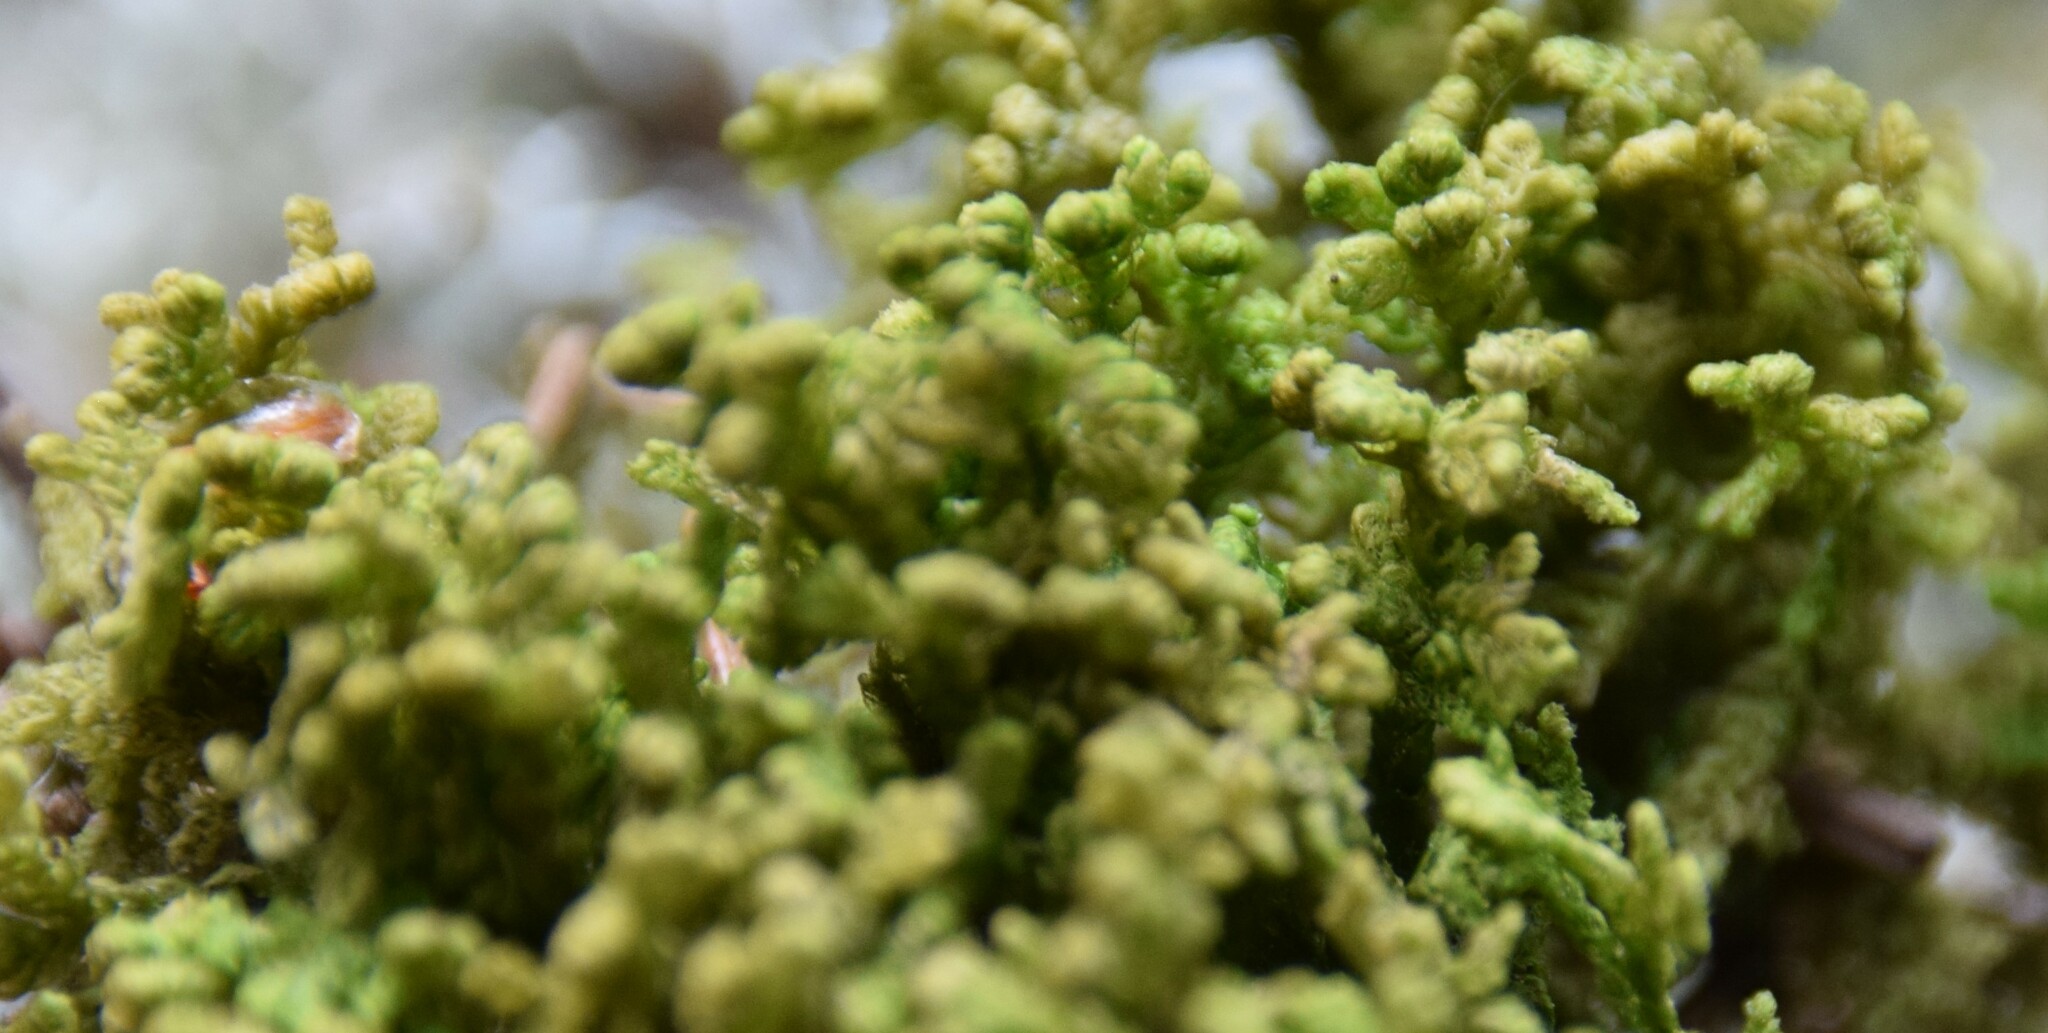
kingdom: Plantae
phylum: Marchantiophyta
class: Jungermanniopsida
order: Ptilidiales
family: Ptilidiaceae
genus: Ptilidium
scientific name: Ptilidium ciliare
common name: Ciliate fringewort
